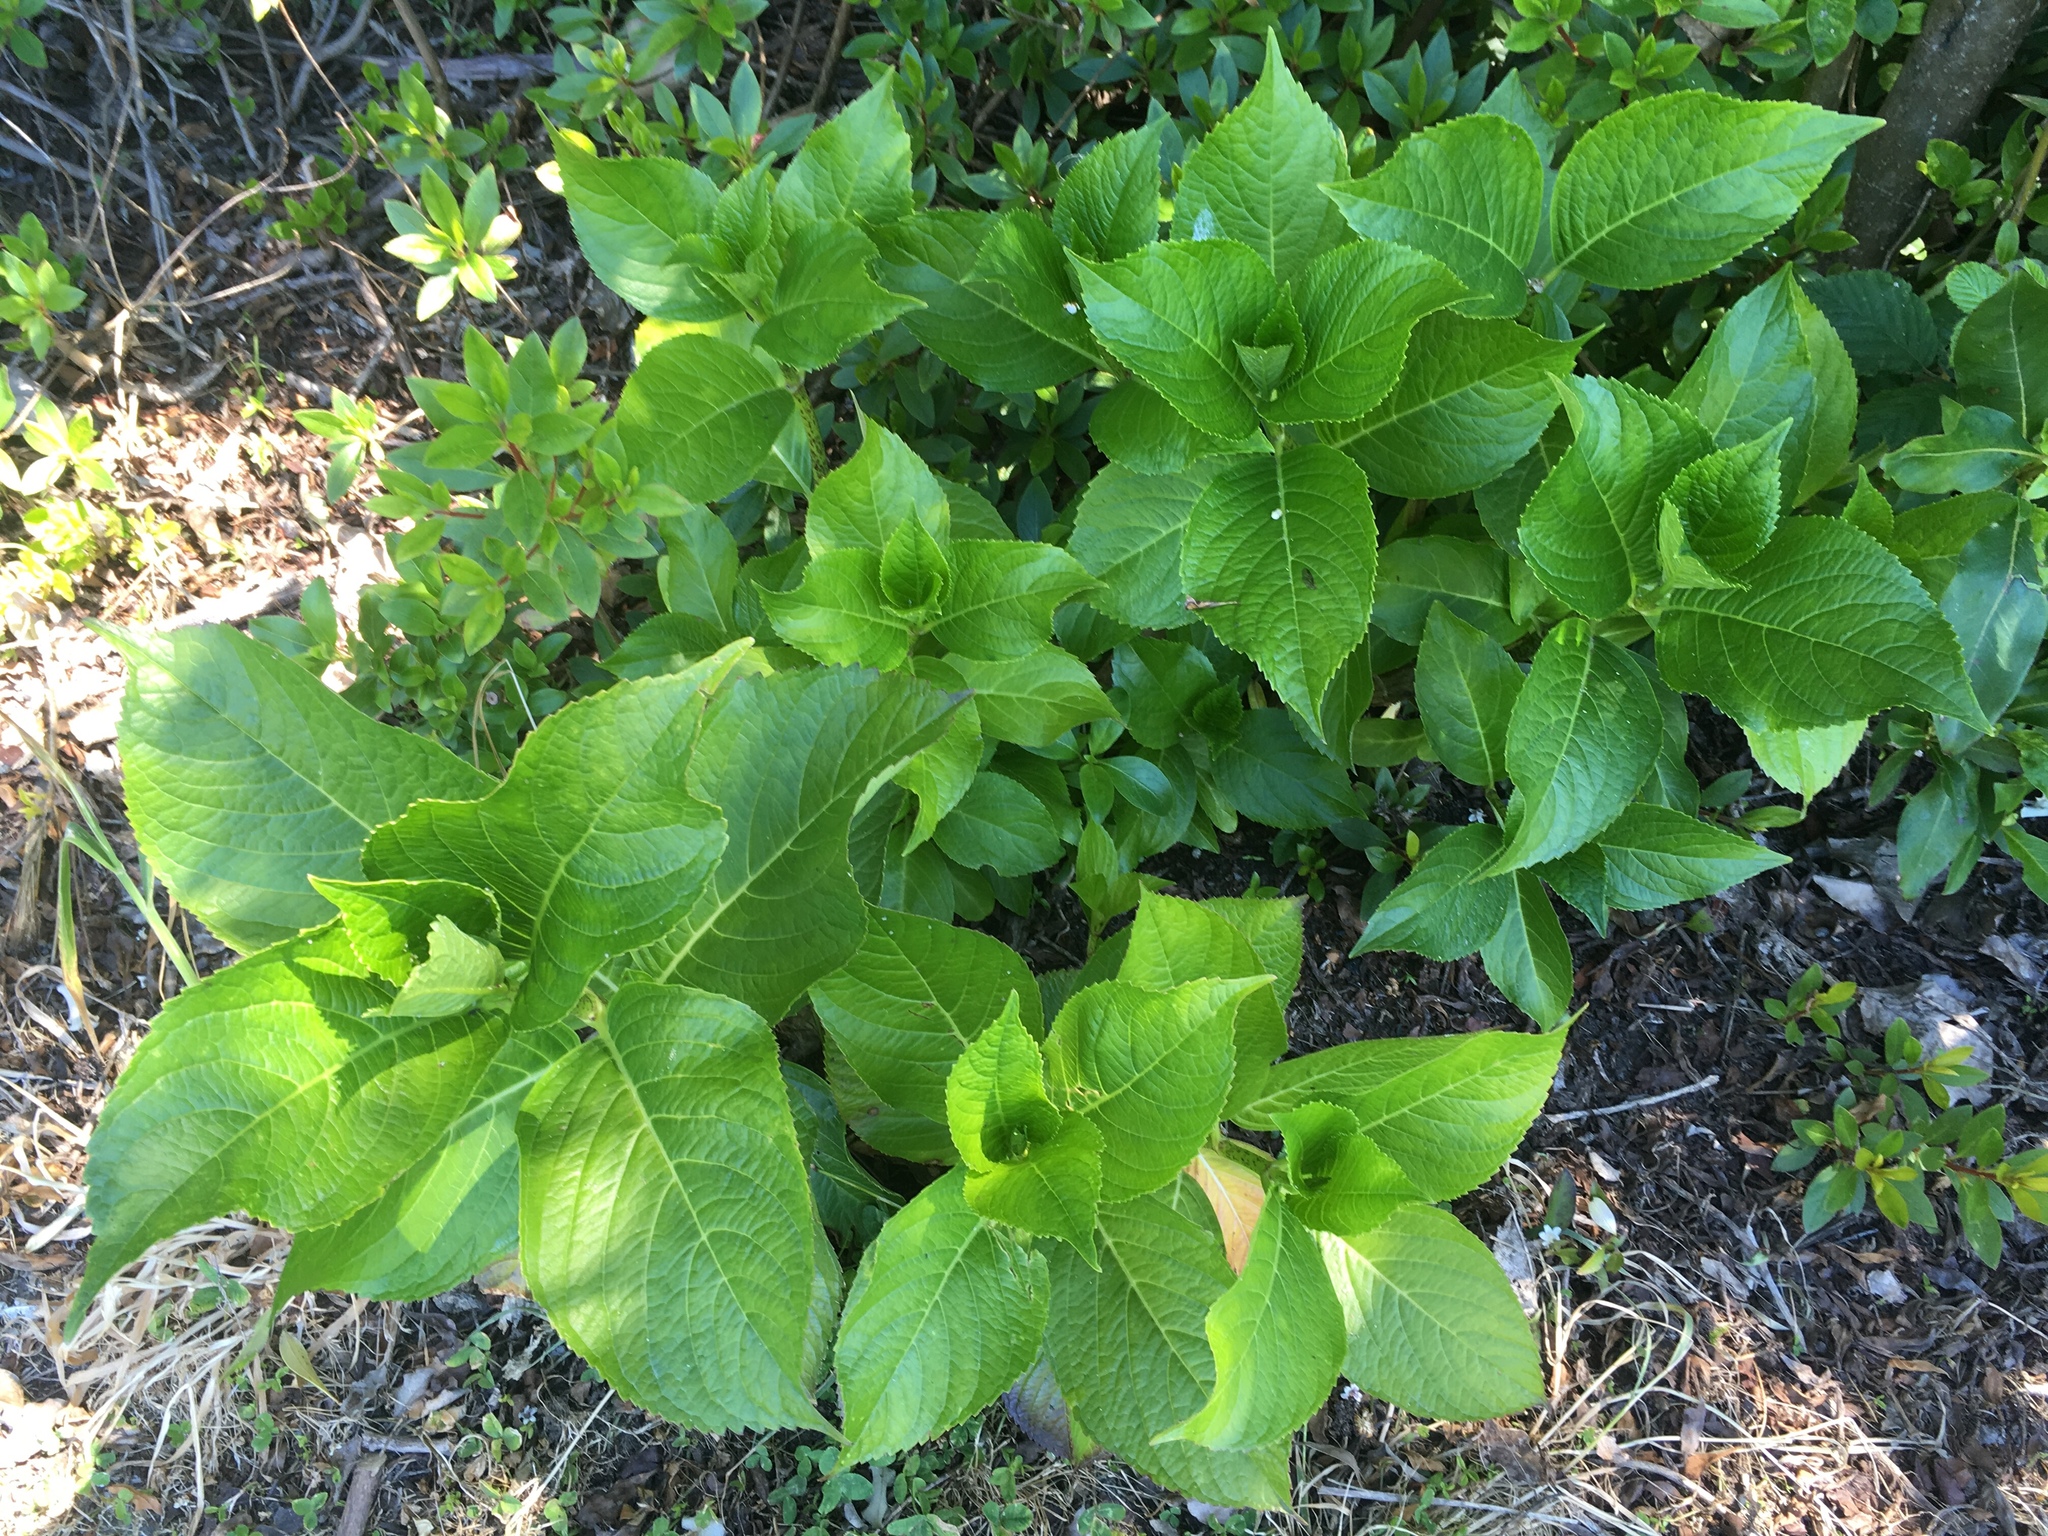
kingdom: Plantae
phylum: Tracheophyta
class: Magnoliopsida
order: Cornales
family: Hydrangeaceae
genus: Hydrangea
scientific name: Hydrangea macrophylla
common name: Hydrangea
